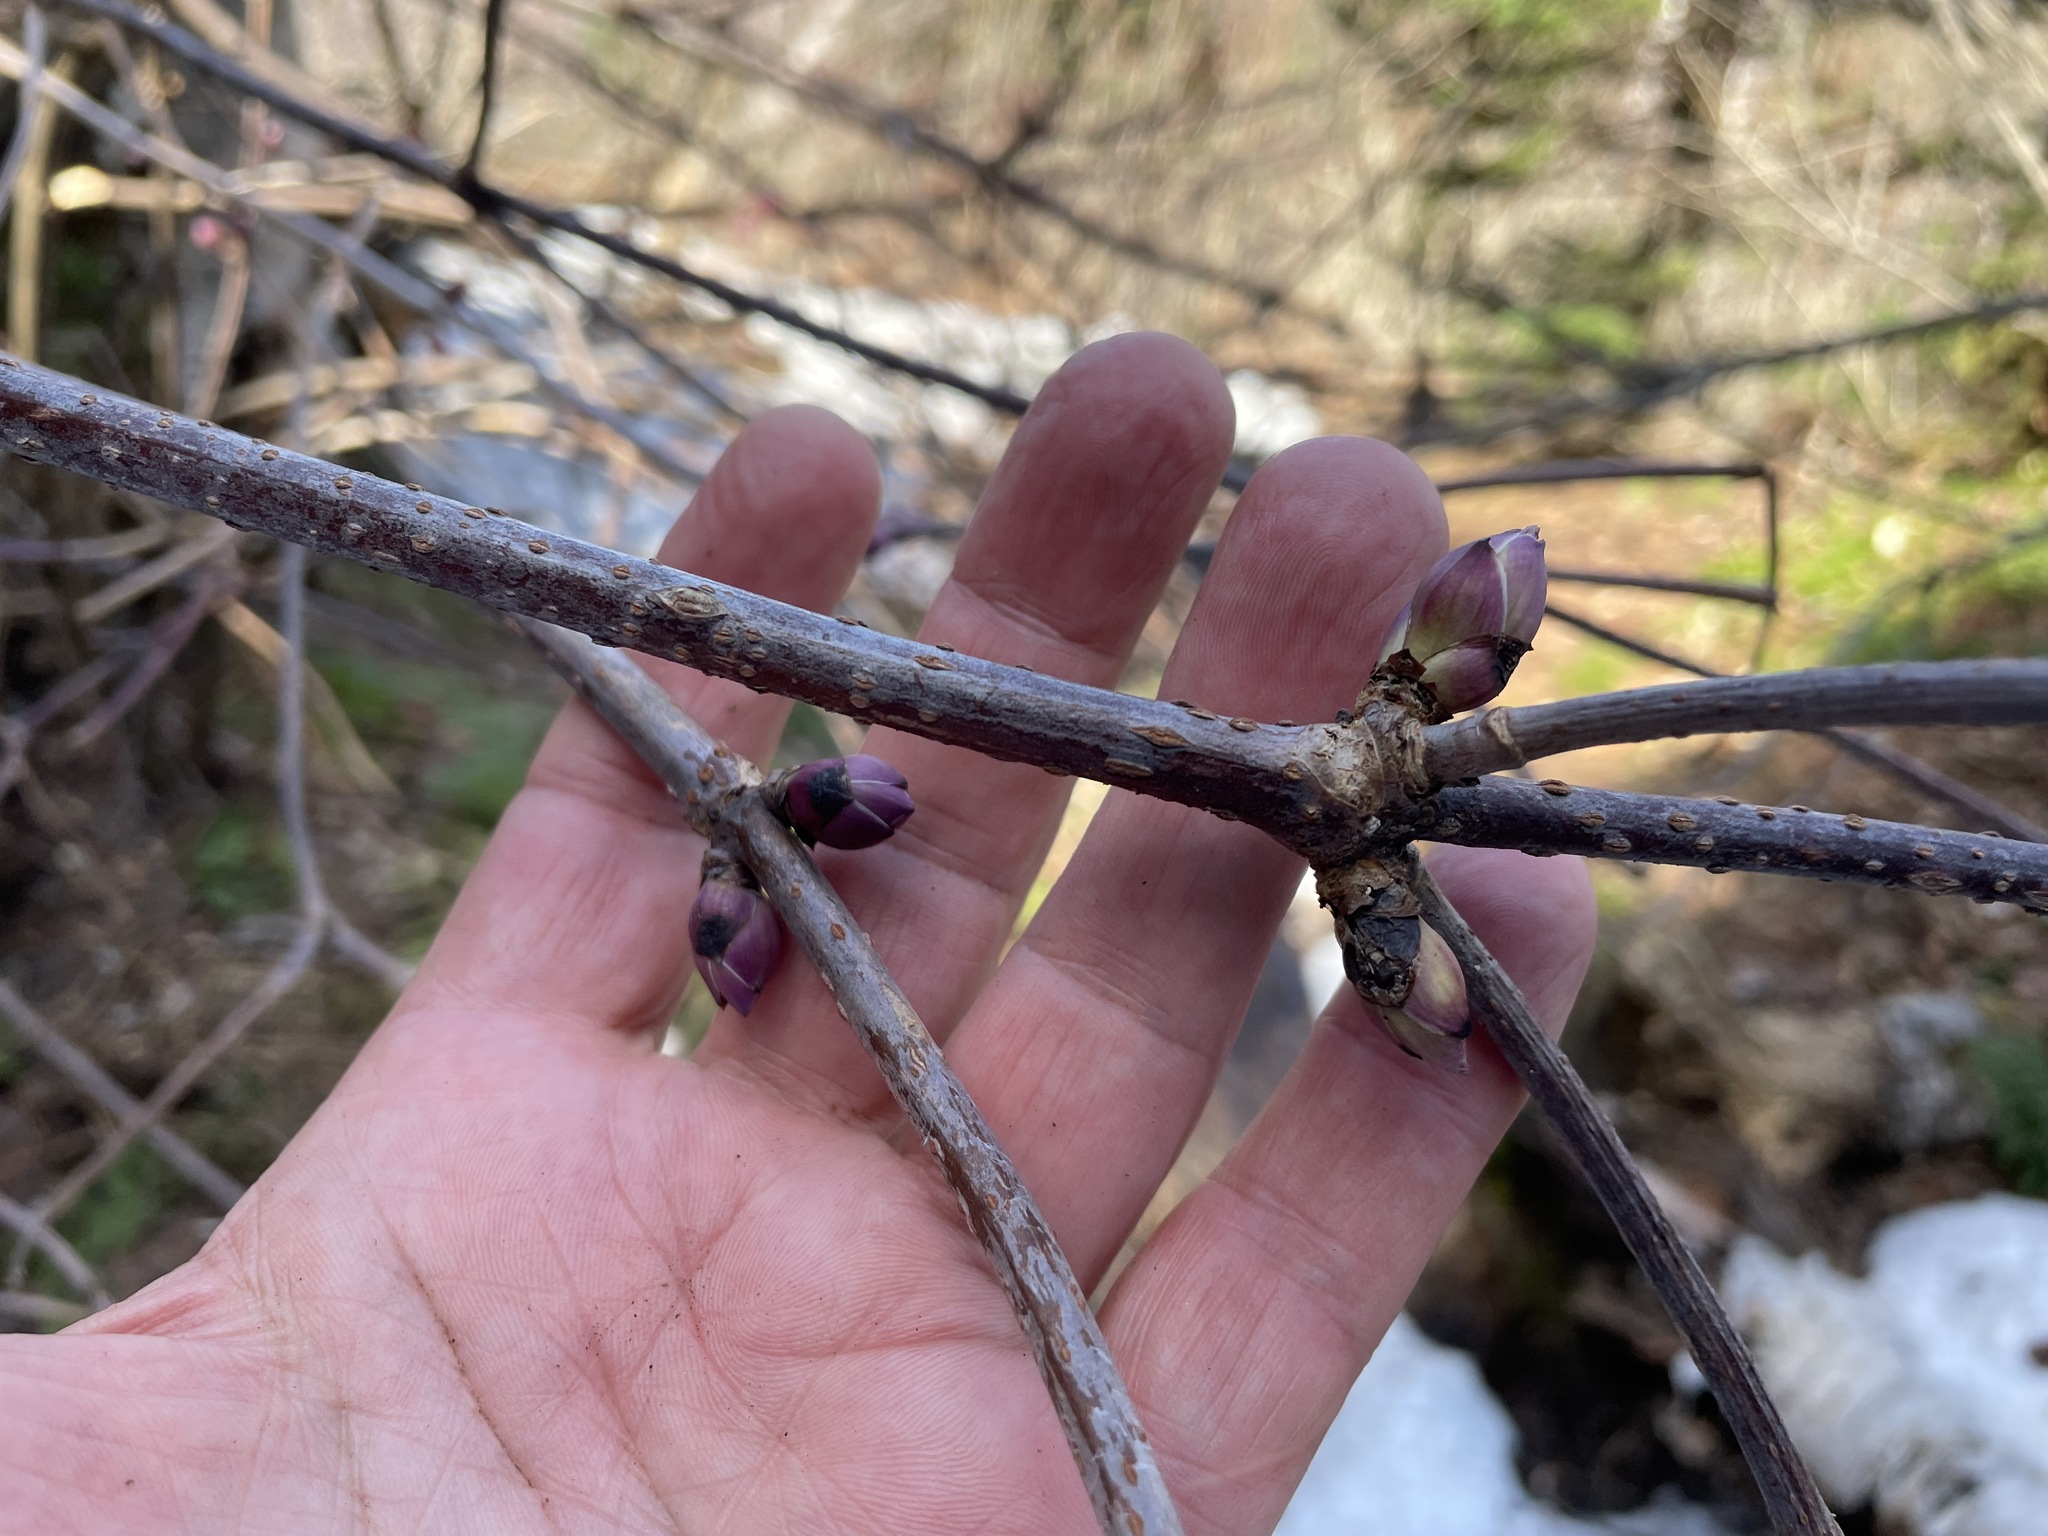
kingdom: Plantae
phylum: Tracheophyta
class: Magnoliopsida
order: Dipsacales
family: Viburnaceae
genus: Sambucus
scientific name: Sambucus racemosa
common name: Red-berried elder
